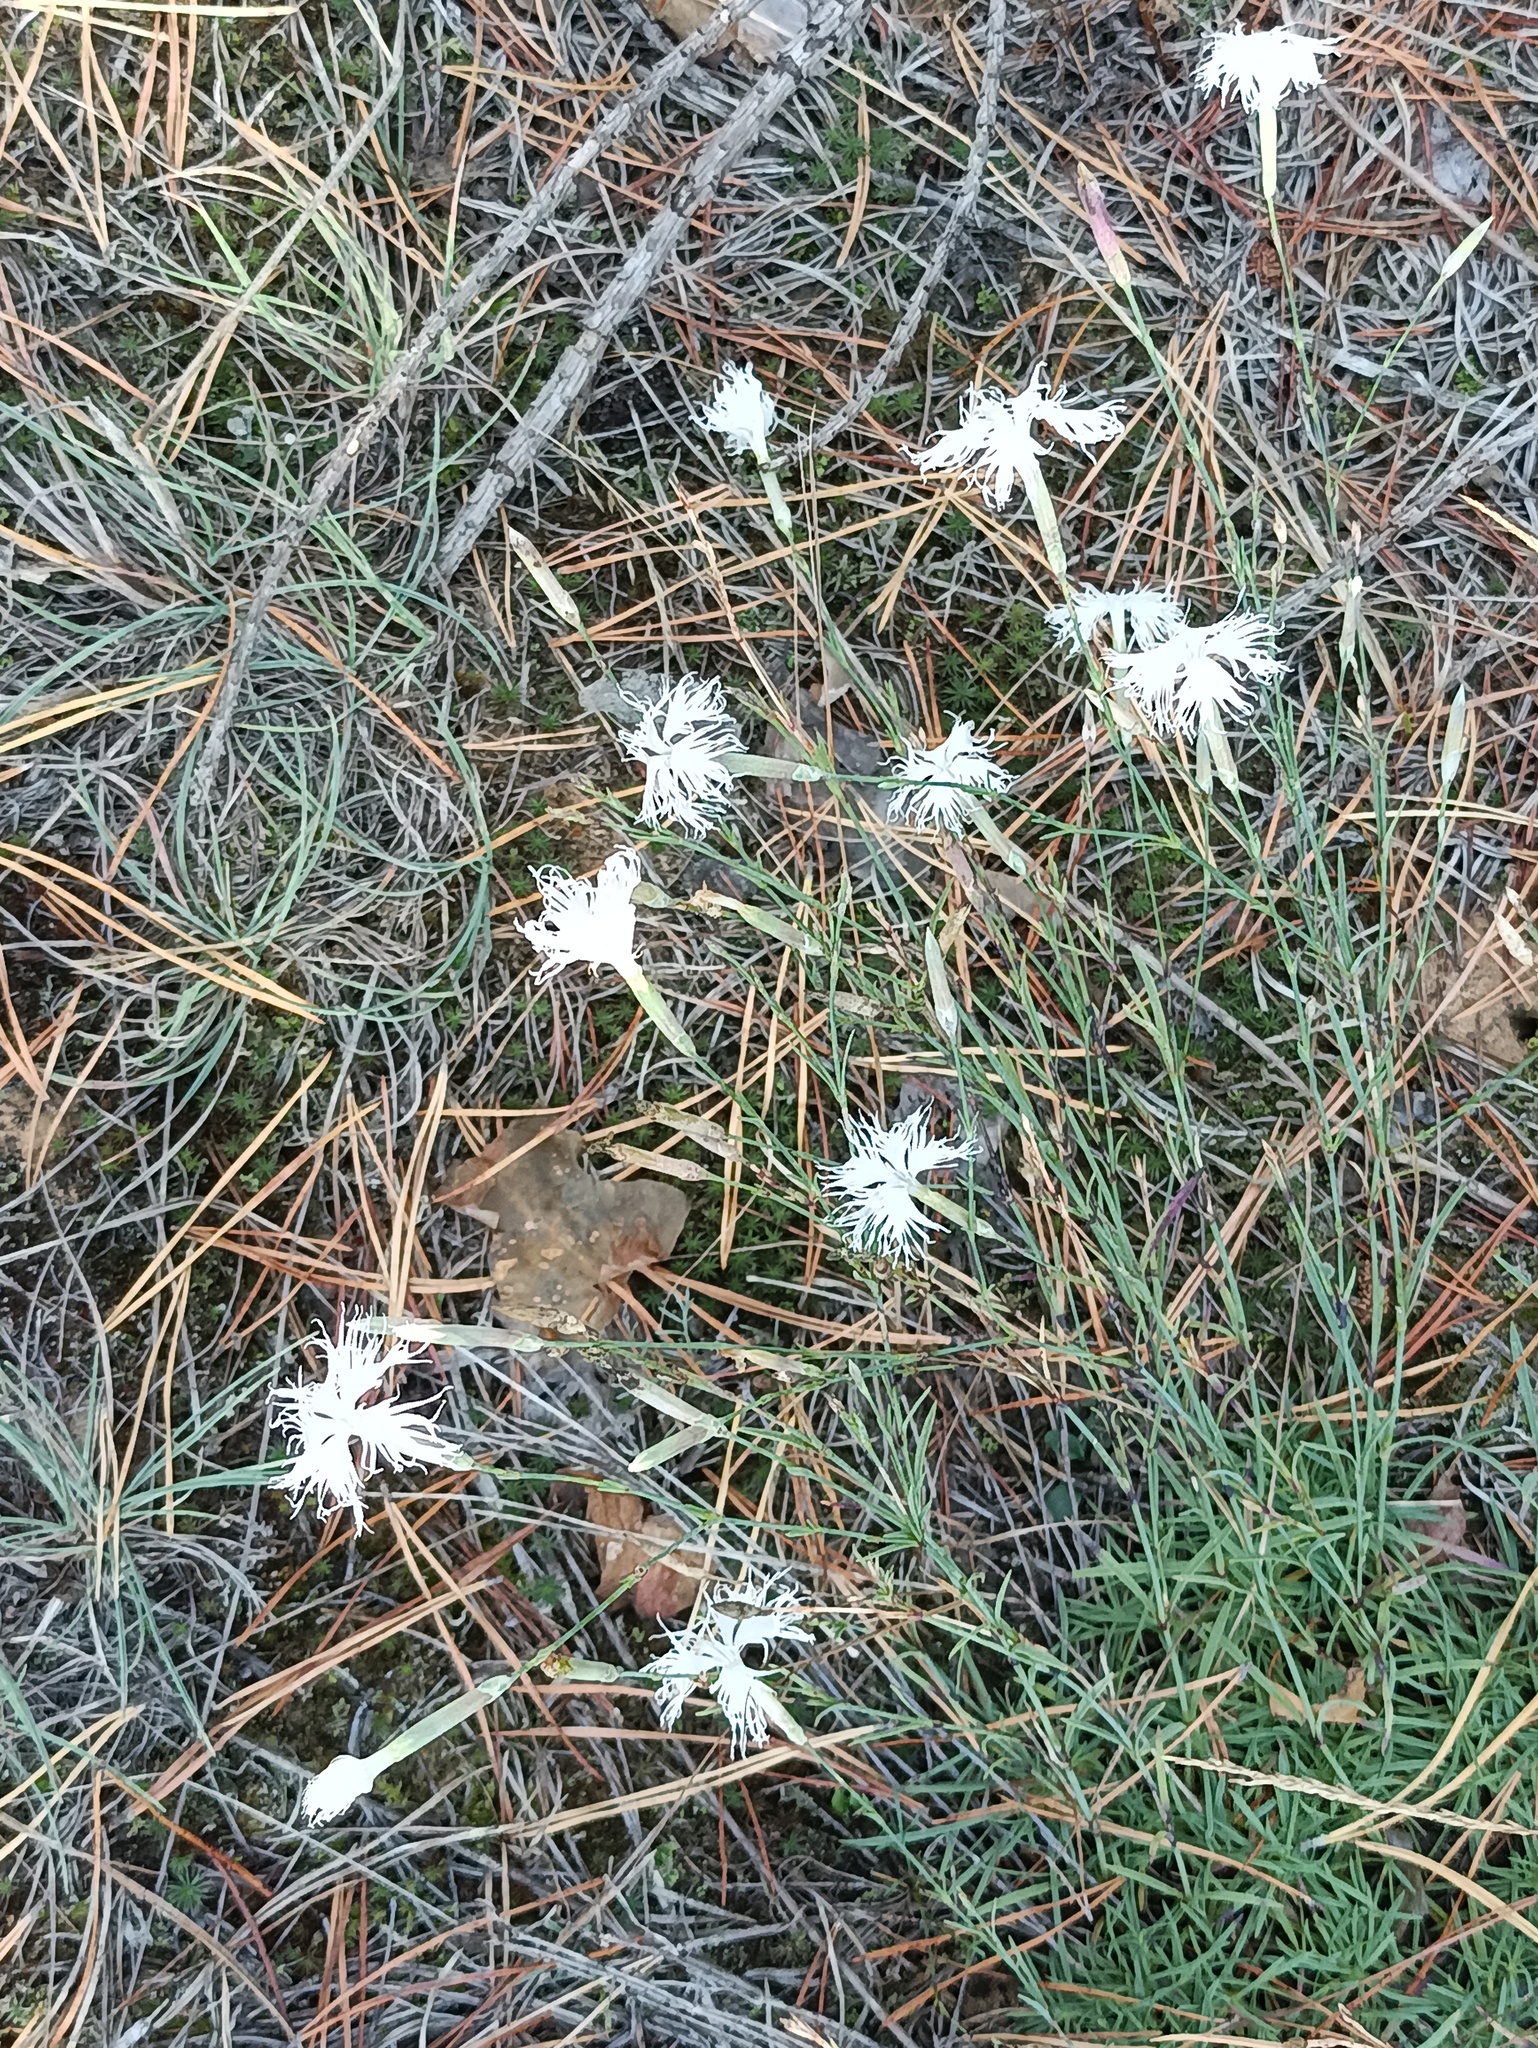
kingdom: Plantae
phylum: Tracheophyta
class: Magnoliopsida
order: Caryophyllales
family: Caryophyllaceae
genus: Dianthus
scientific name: Dianthus arenarius
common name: Stone pink
